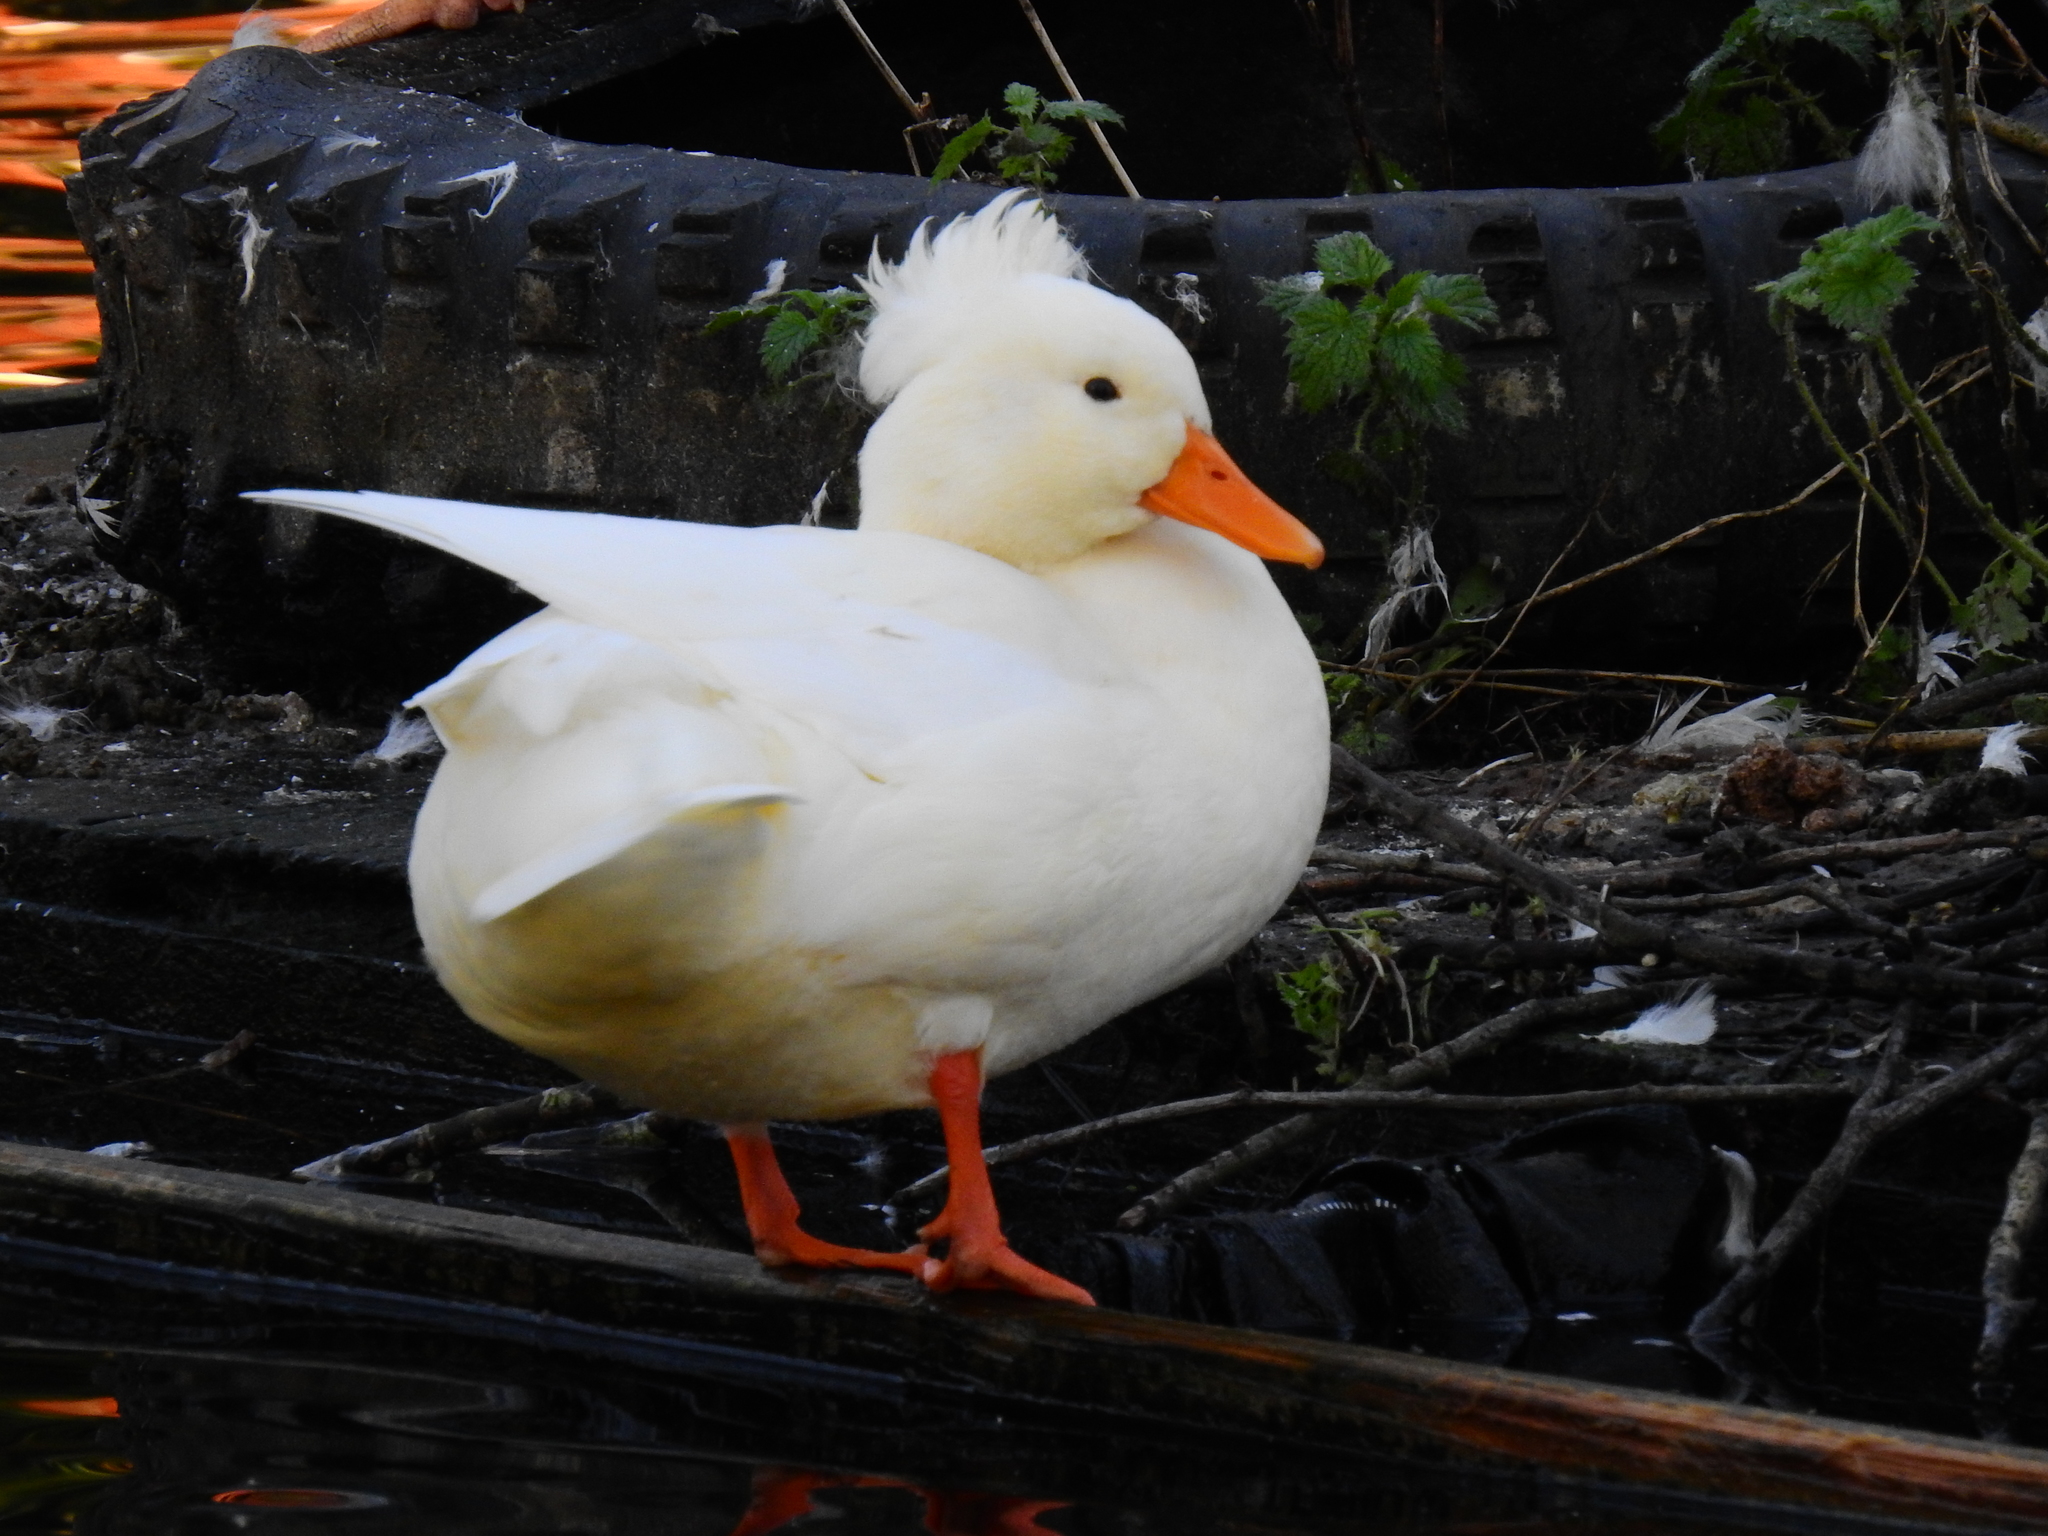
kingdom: Animalia
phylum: Chordata
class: Aves
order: Anseriformes
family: Anatidae
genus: Anas
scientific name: Anas platyrhynchos
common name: Mallard
